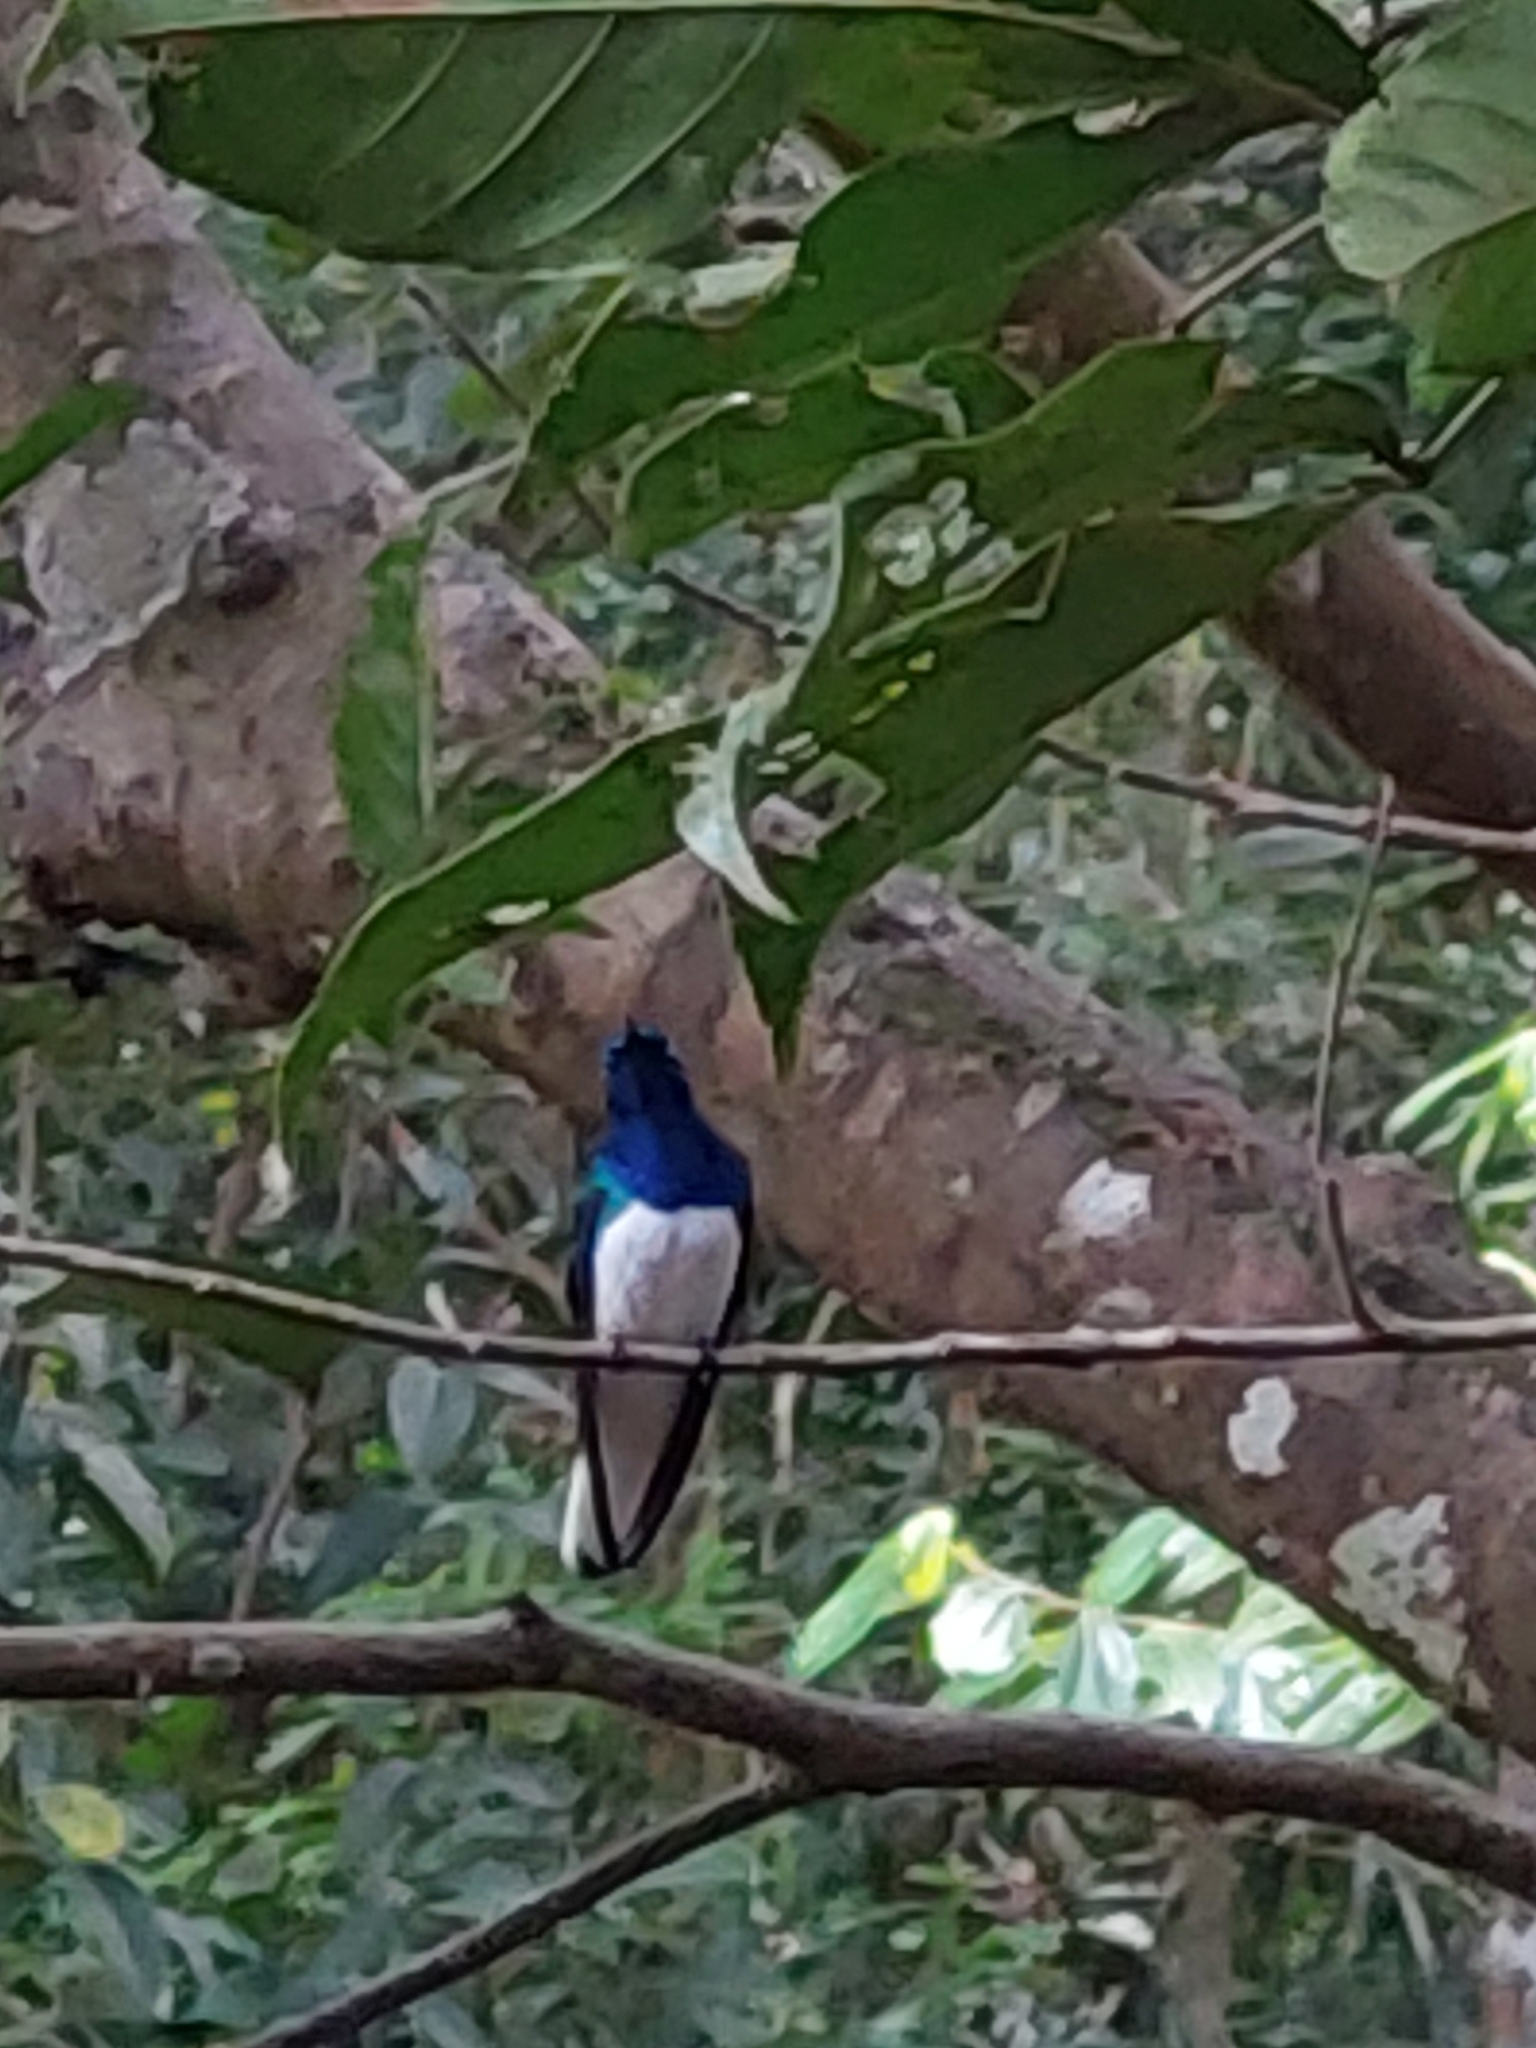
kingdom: Animalia
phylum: Chordata
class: Aves
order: Apodiformes
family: Trochilidae
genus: Florisuga
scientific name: Florisuga mellivora
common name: White-necked jacobin
